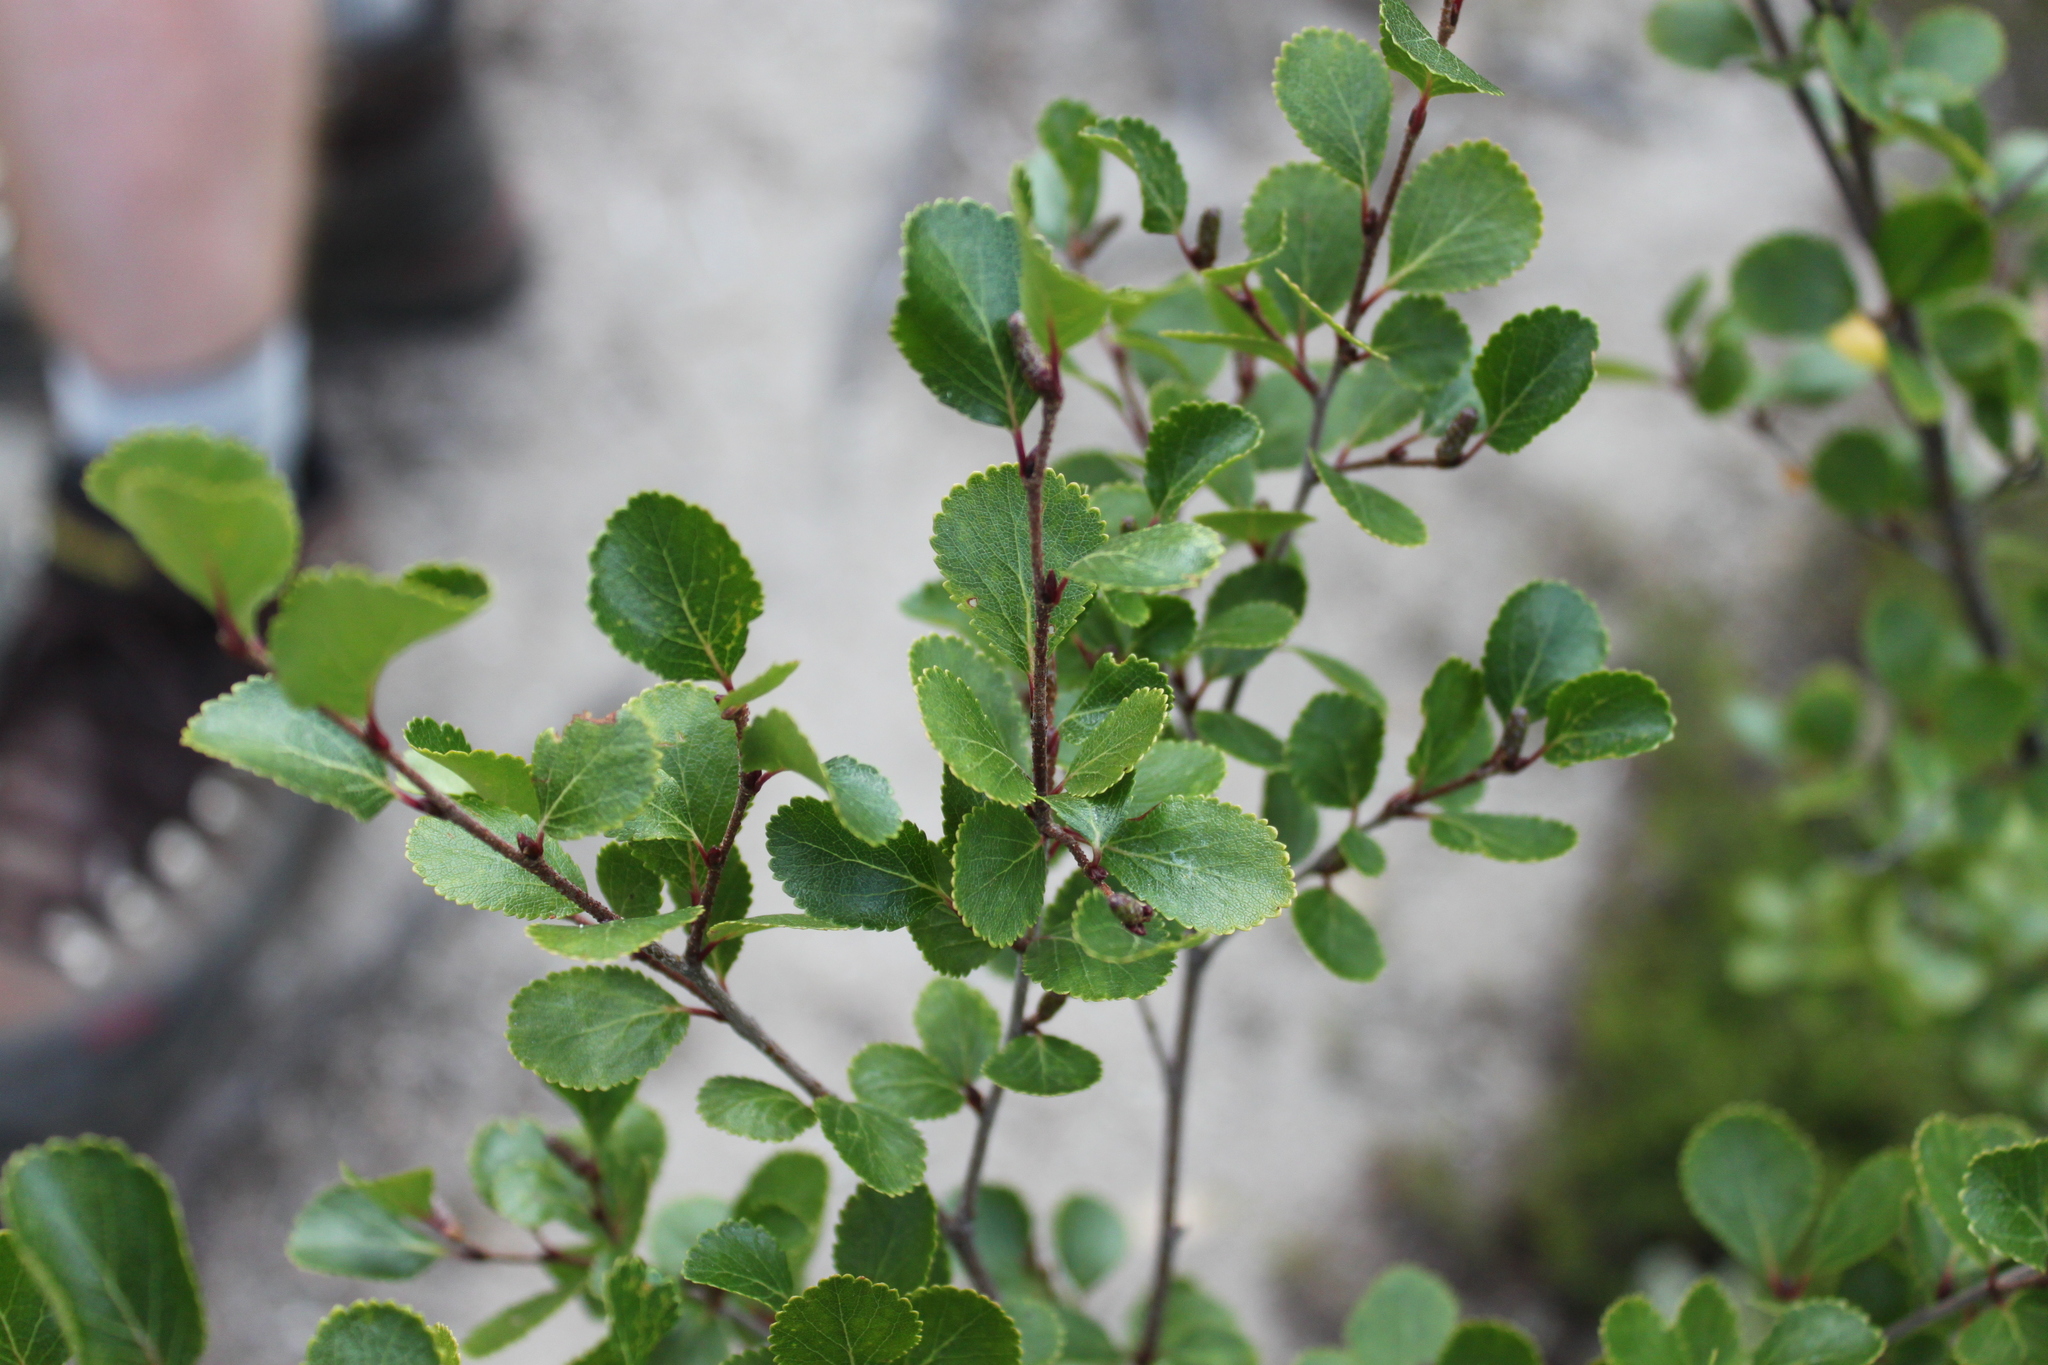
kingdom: Plantae
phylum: Tracheophyta
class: Magnoliopsida
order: Fagales
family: Betulaceae
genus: Betula
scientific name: Betula glandulosa
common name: Dwarf birch
